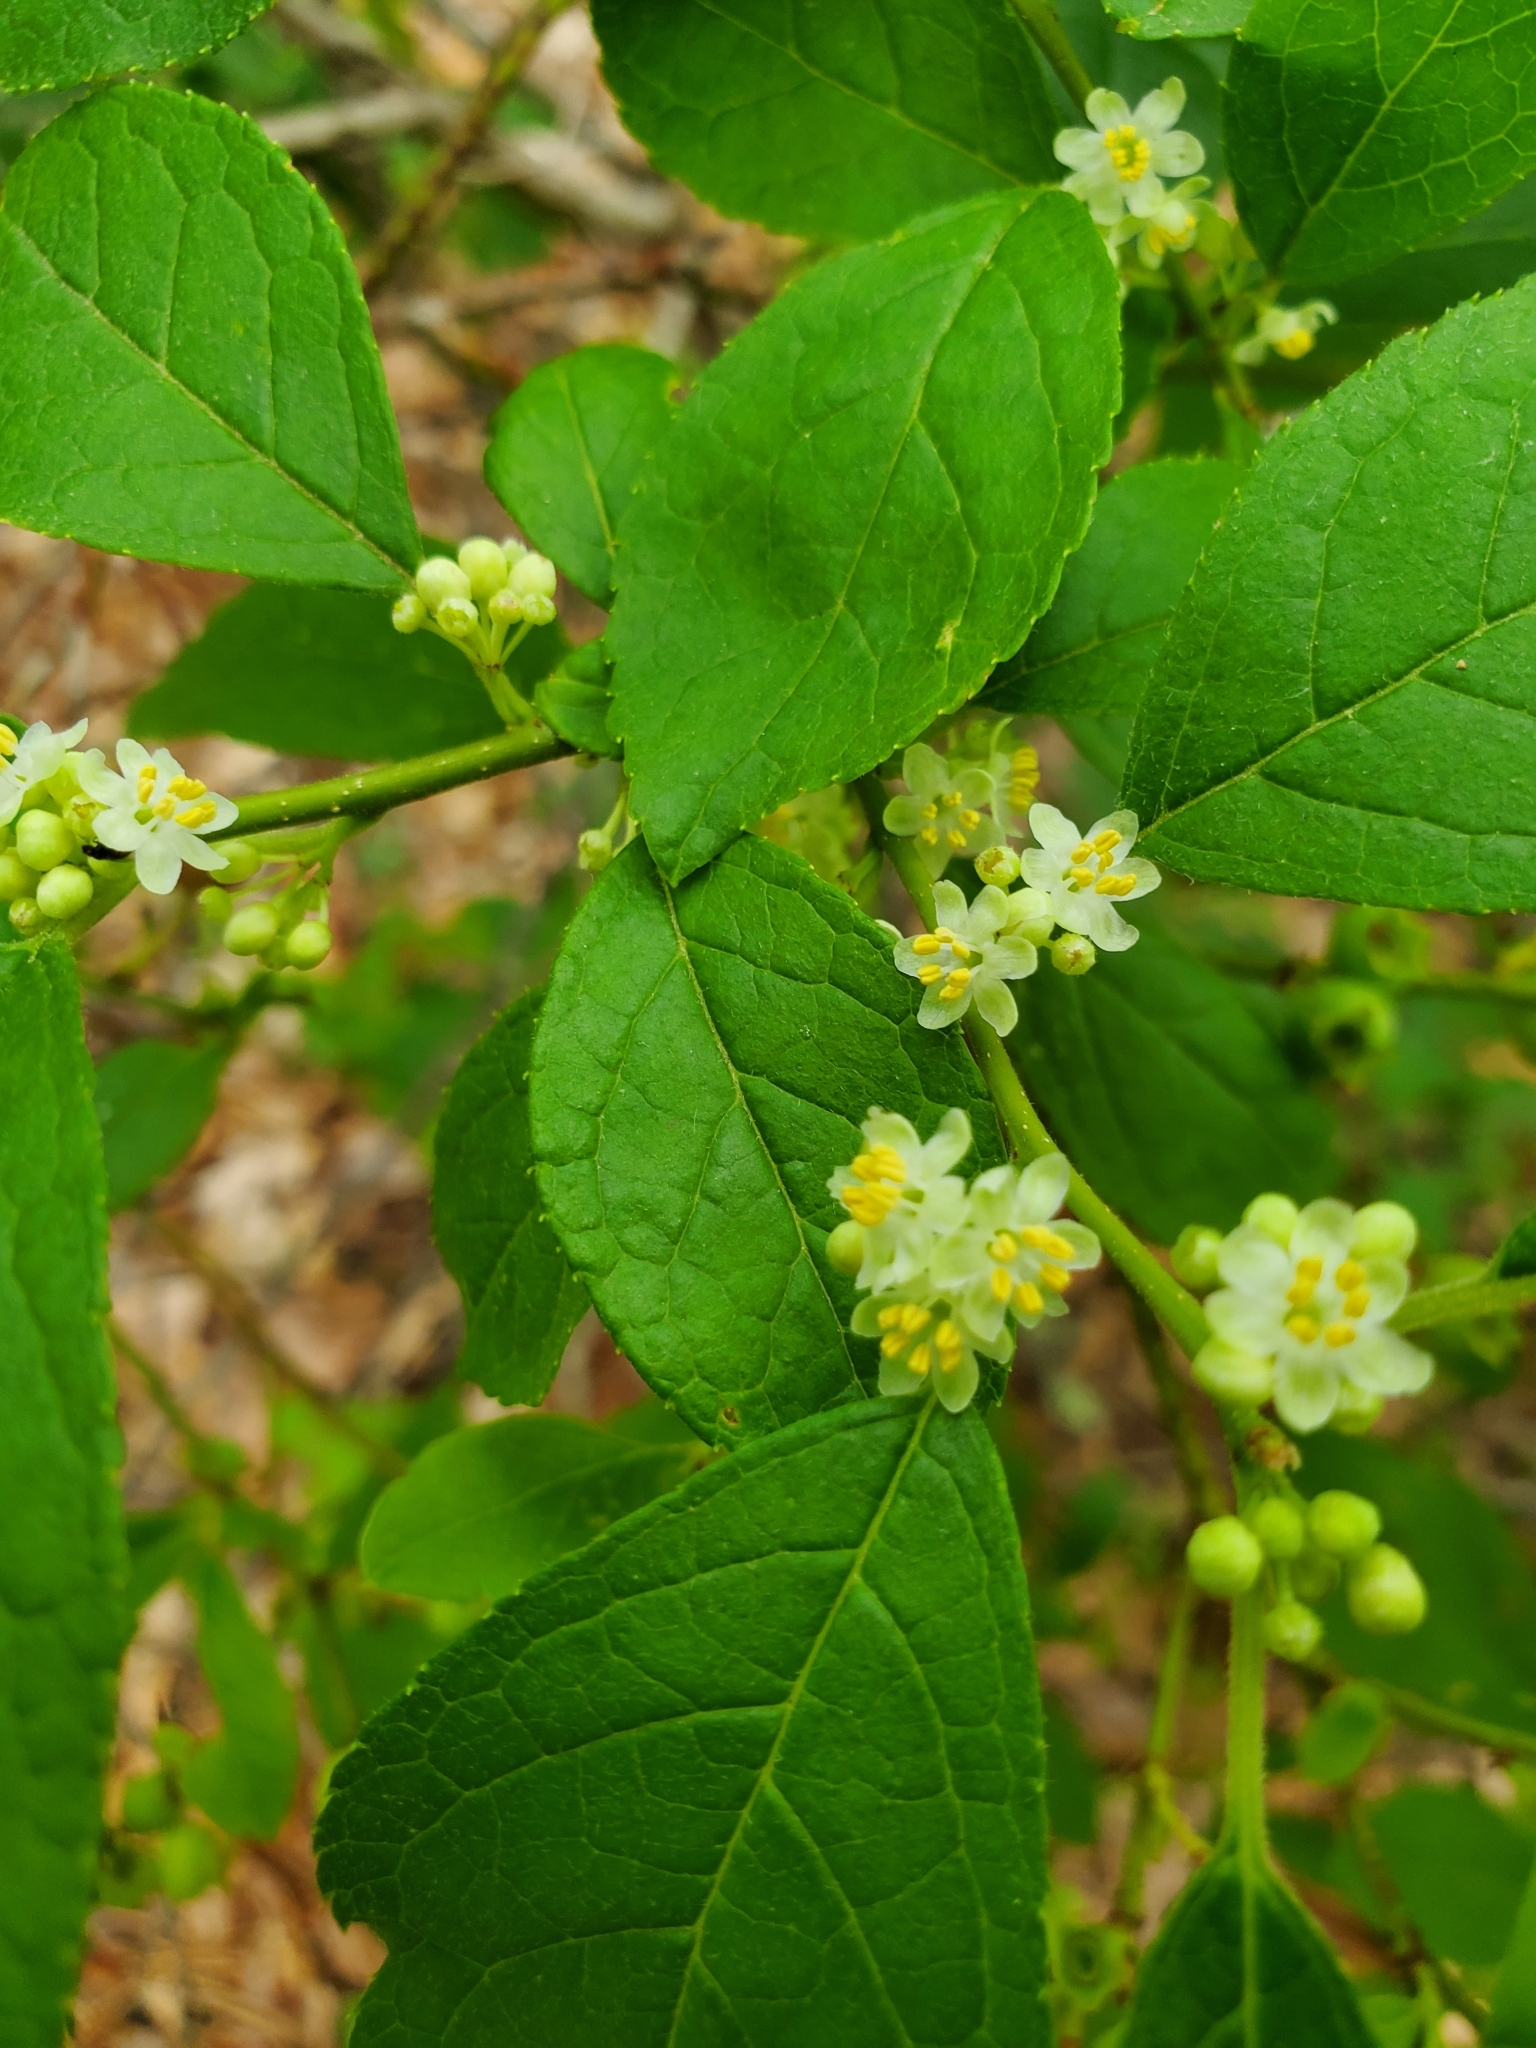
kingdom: Plantae
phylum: Tracheophyta
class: Magnoliopsida
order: Aquifoliales
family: Aquifoliaceae
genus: Ilex
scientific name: Ilex verticillata
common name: Virginia winterberry
